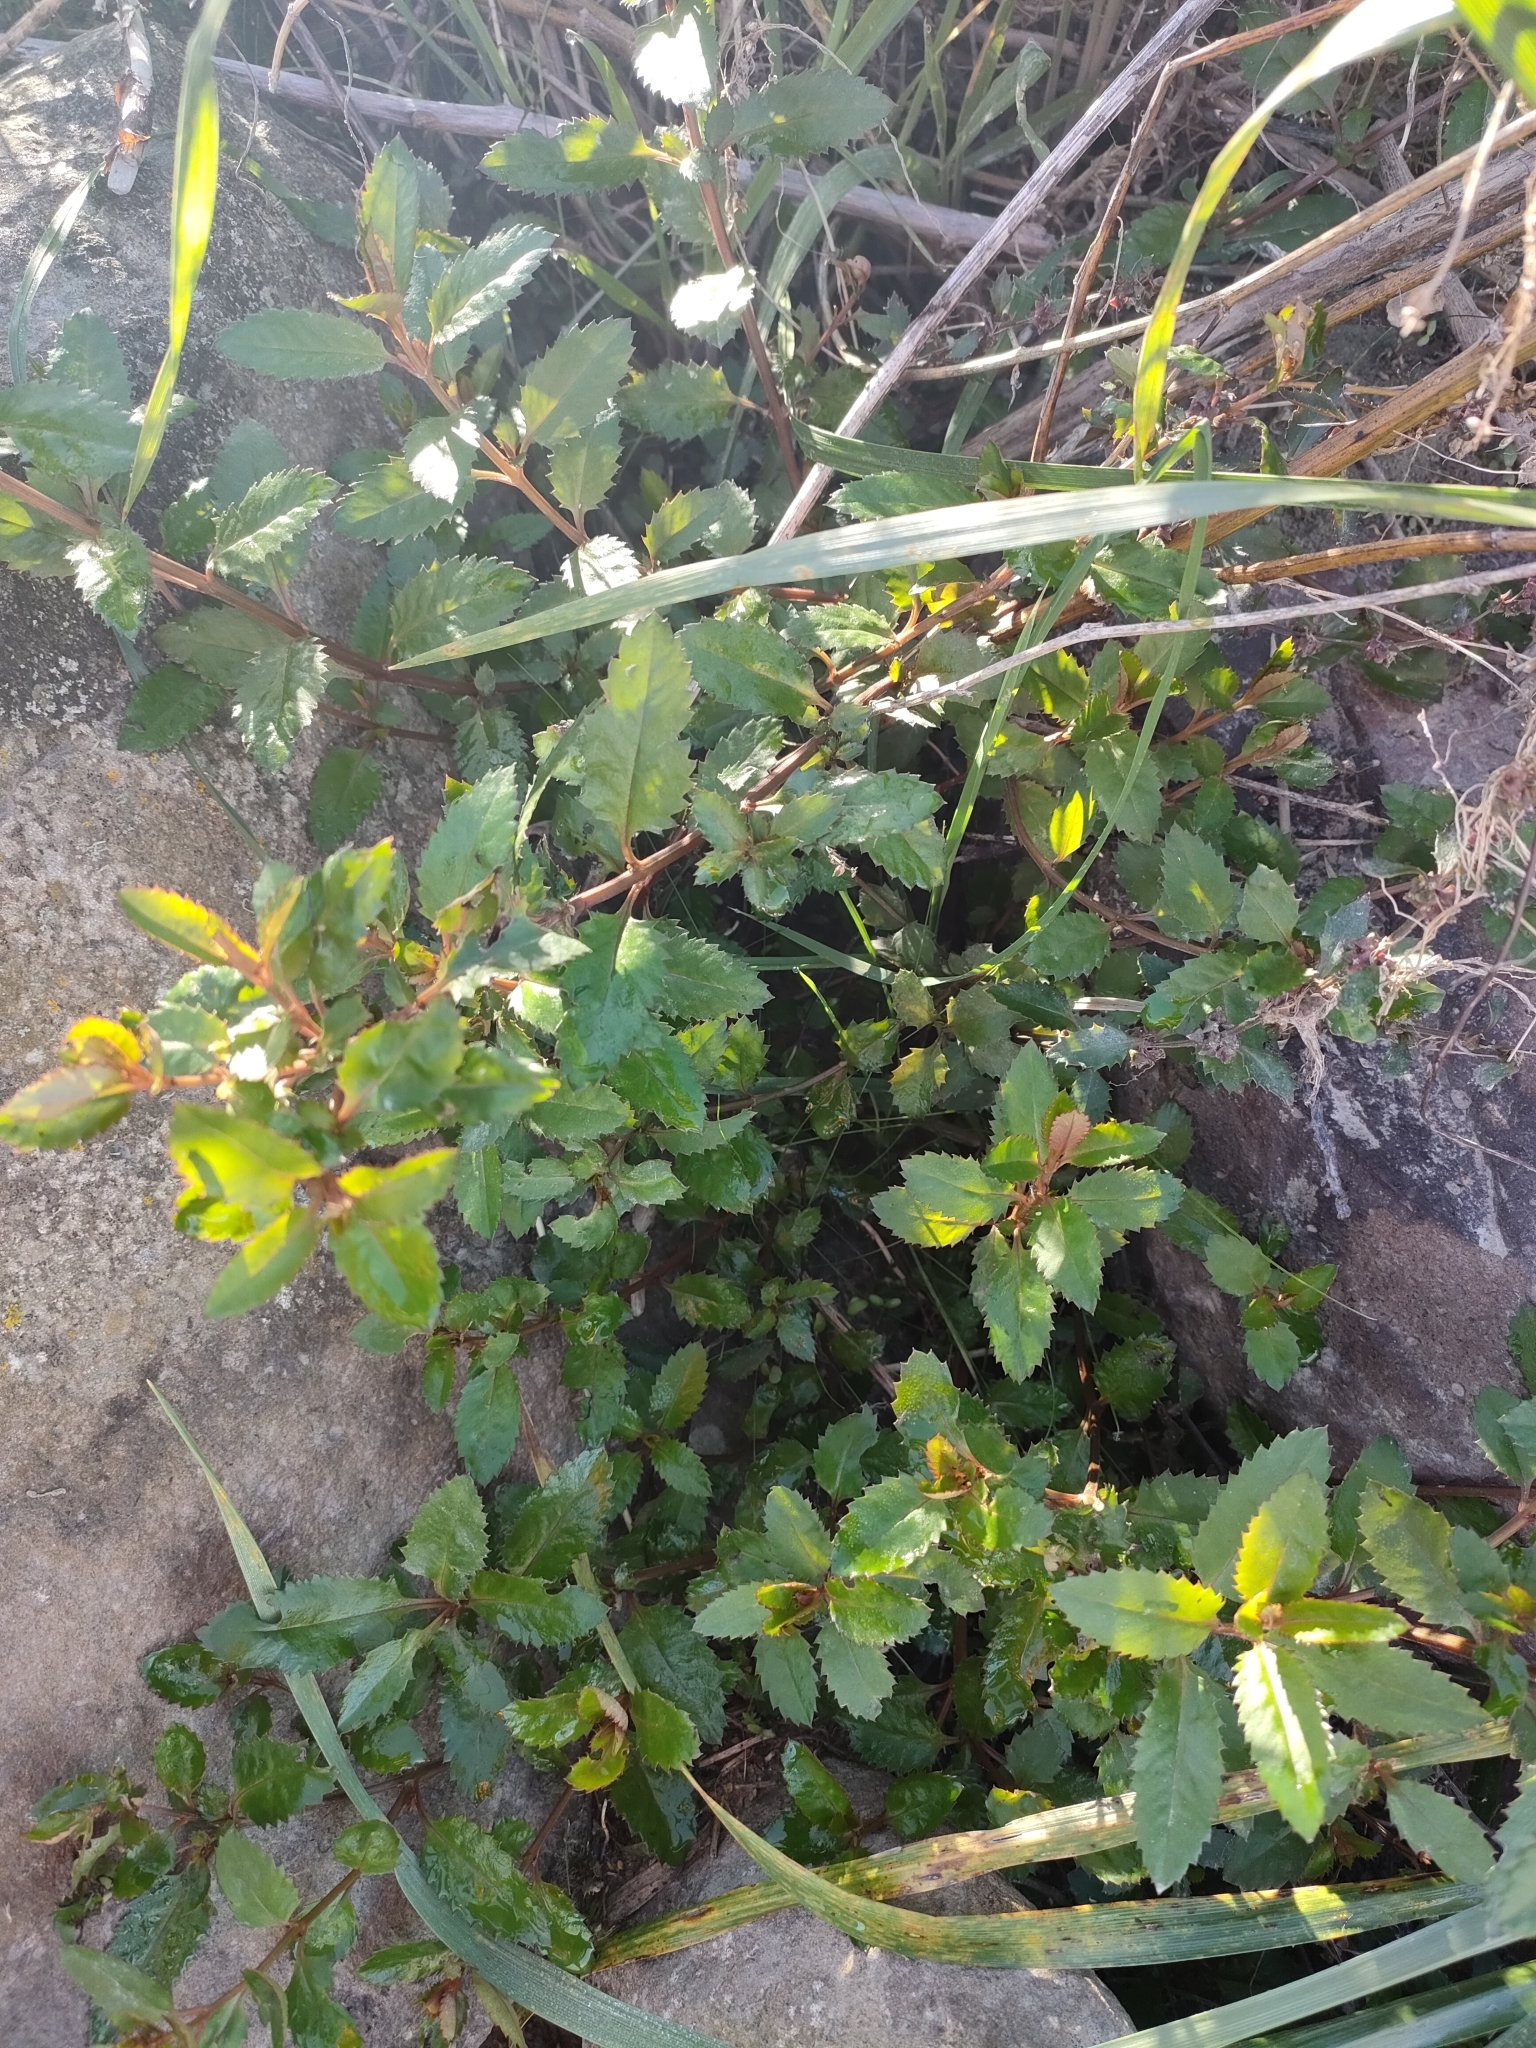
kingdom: Plantae
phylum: Tracheophyta
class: Magnoliopsida
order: Saxifragales
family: Haloragaceae
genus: Haloragis
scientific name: Haloragis erecta
